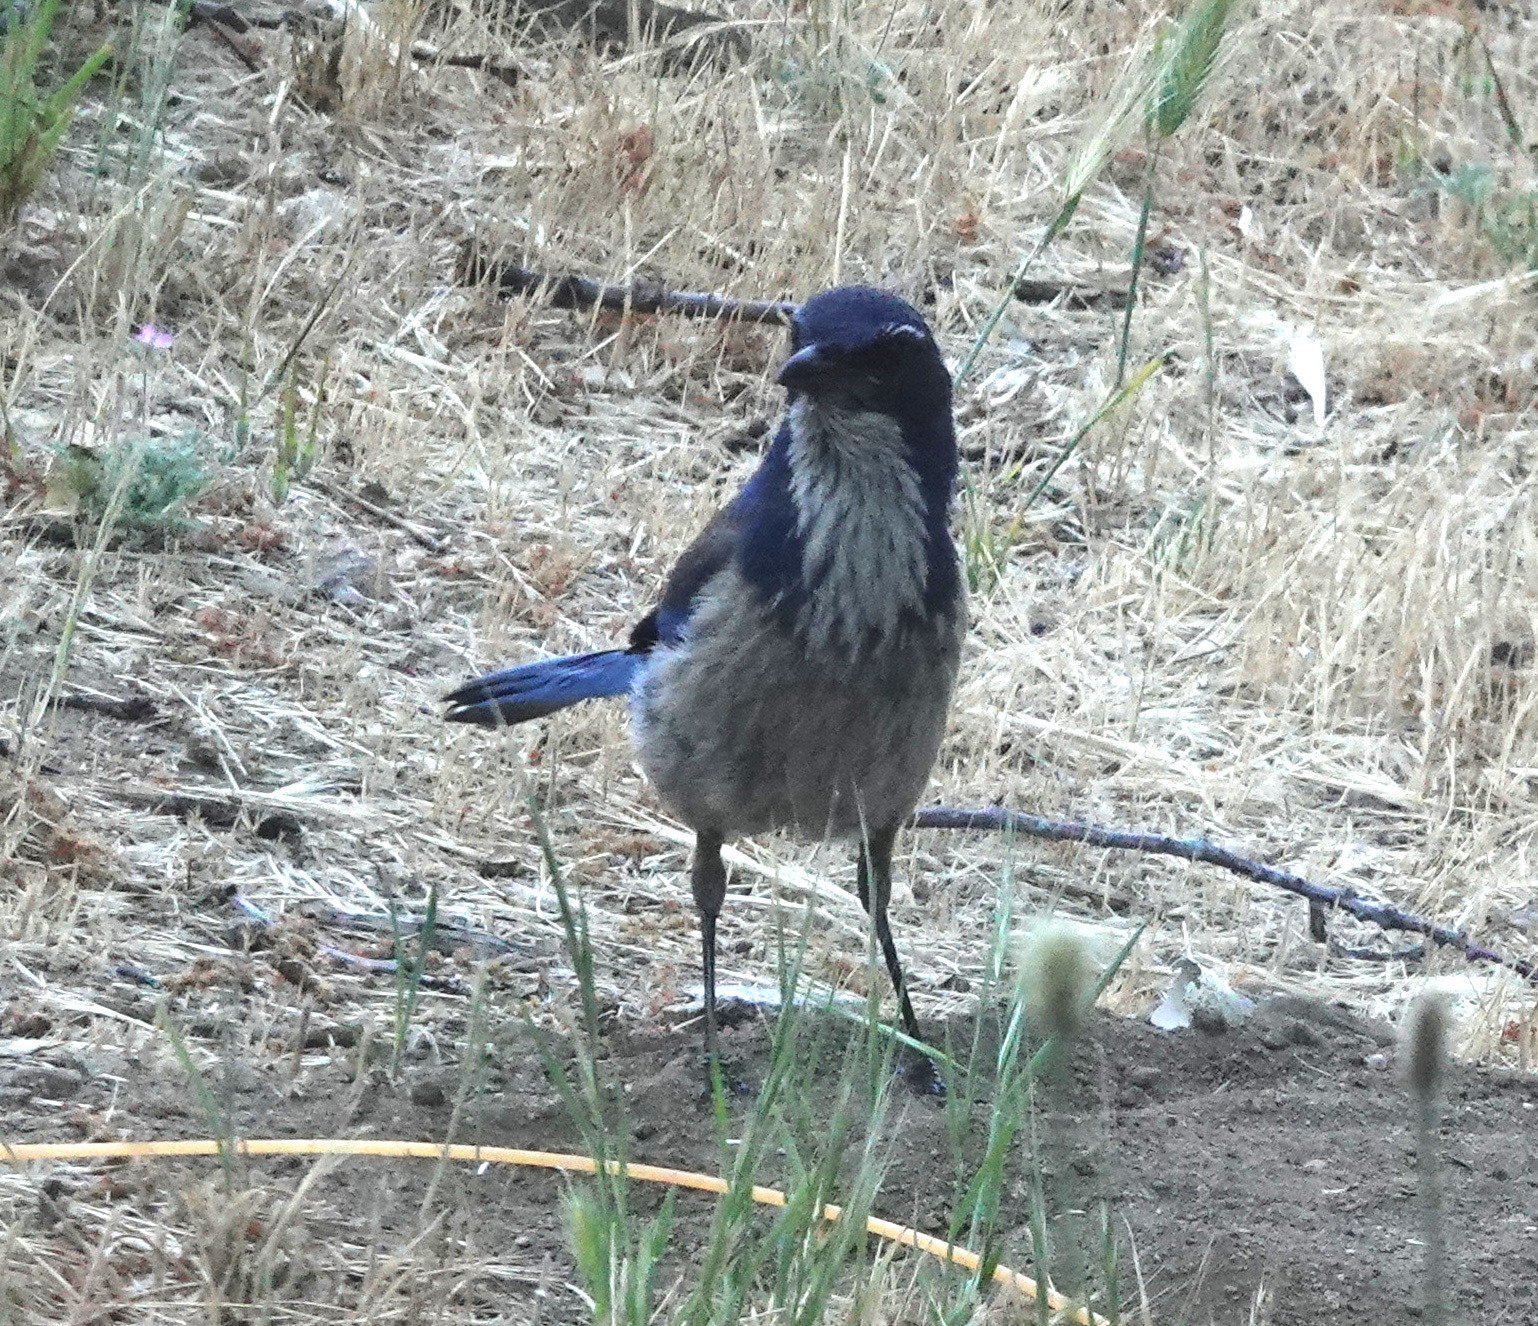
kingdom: Animalia
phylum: Chordata
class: Aves
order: Passeriformes
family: Corvidae
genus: Aphelocoma
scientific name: Aphelocoma californica
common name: California scrub-jay
